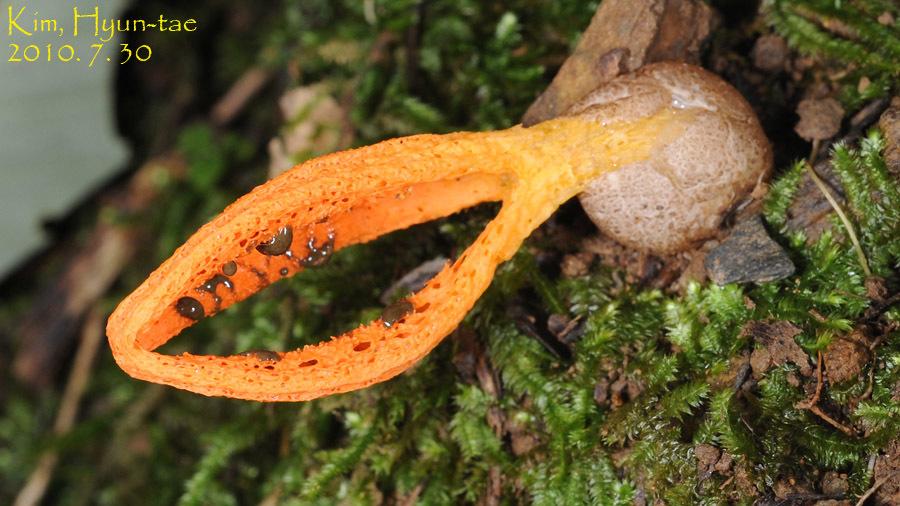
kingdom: Fungi
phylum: Basidiomycota
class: Agaricomycetes
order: Phallales
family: Phallaceae
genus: Pseudocolus
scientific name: Pseudocolus fusiformis
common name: Stinky squid
